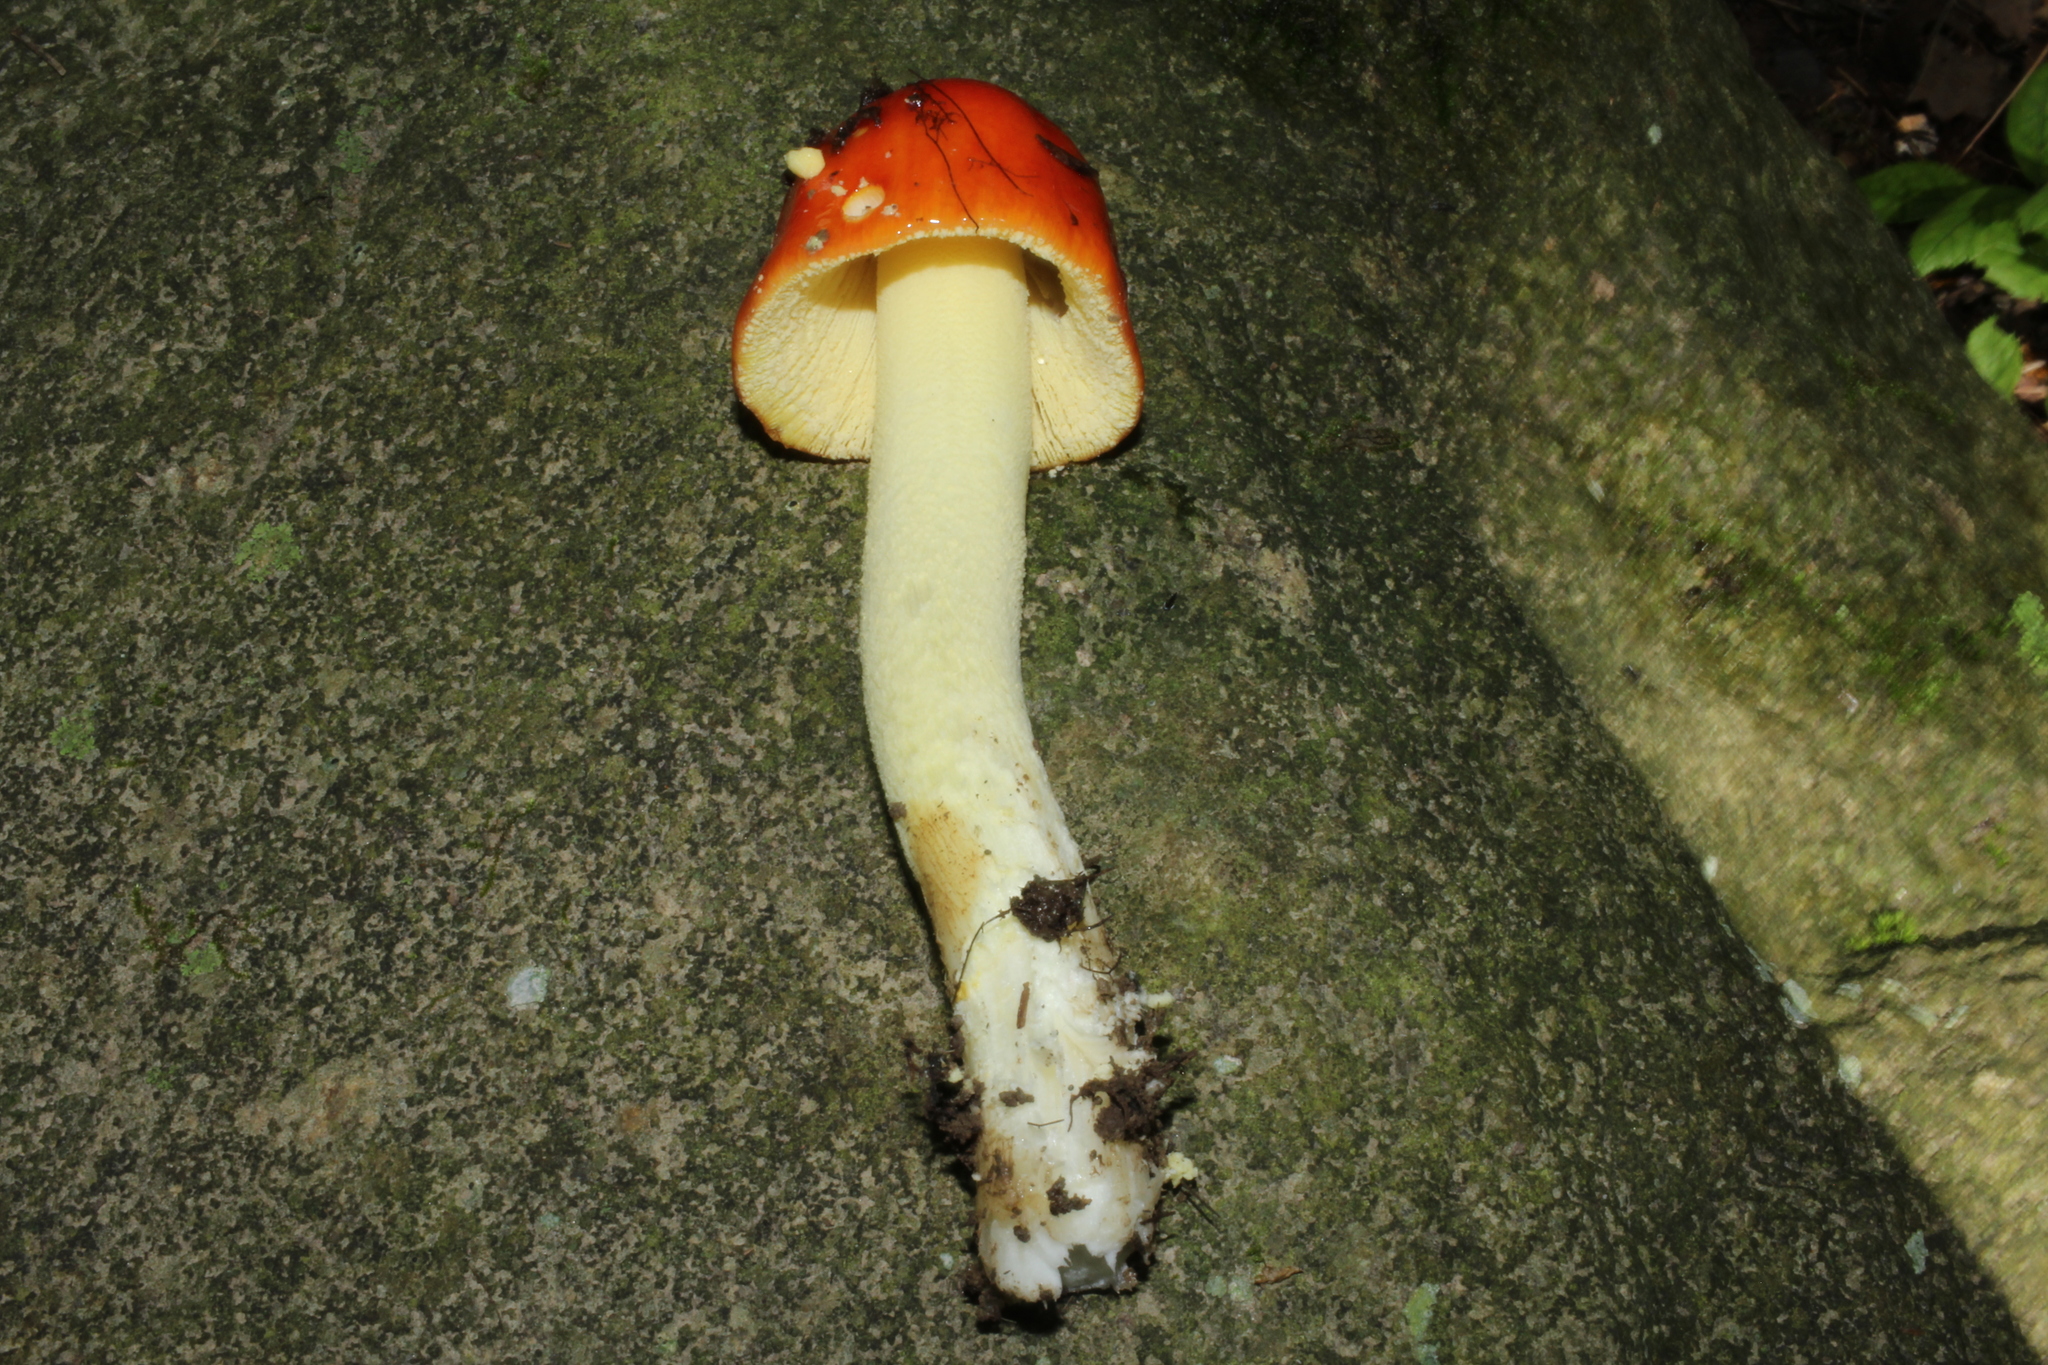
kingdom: Fungi
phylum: Basidiomycota
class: Agaricomycetes
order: Agaricales
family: Amanitaceae
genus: Amanita
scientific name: Amanita parcivolvata
